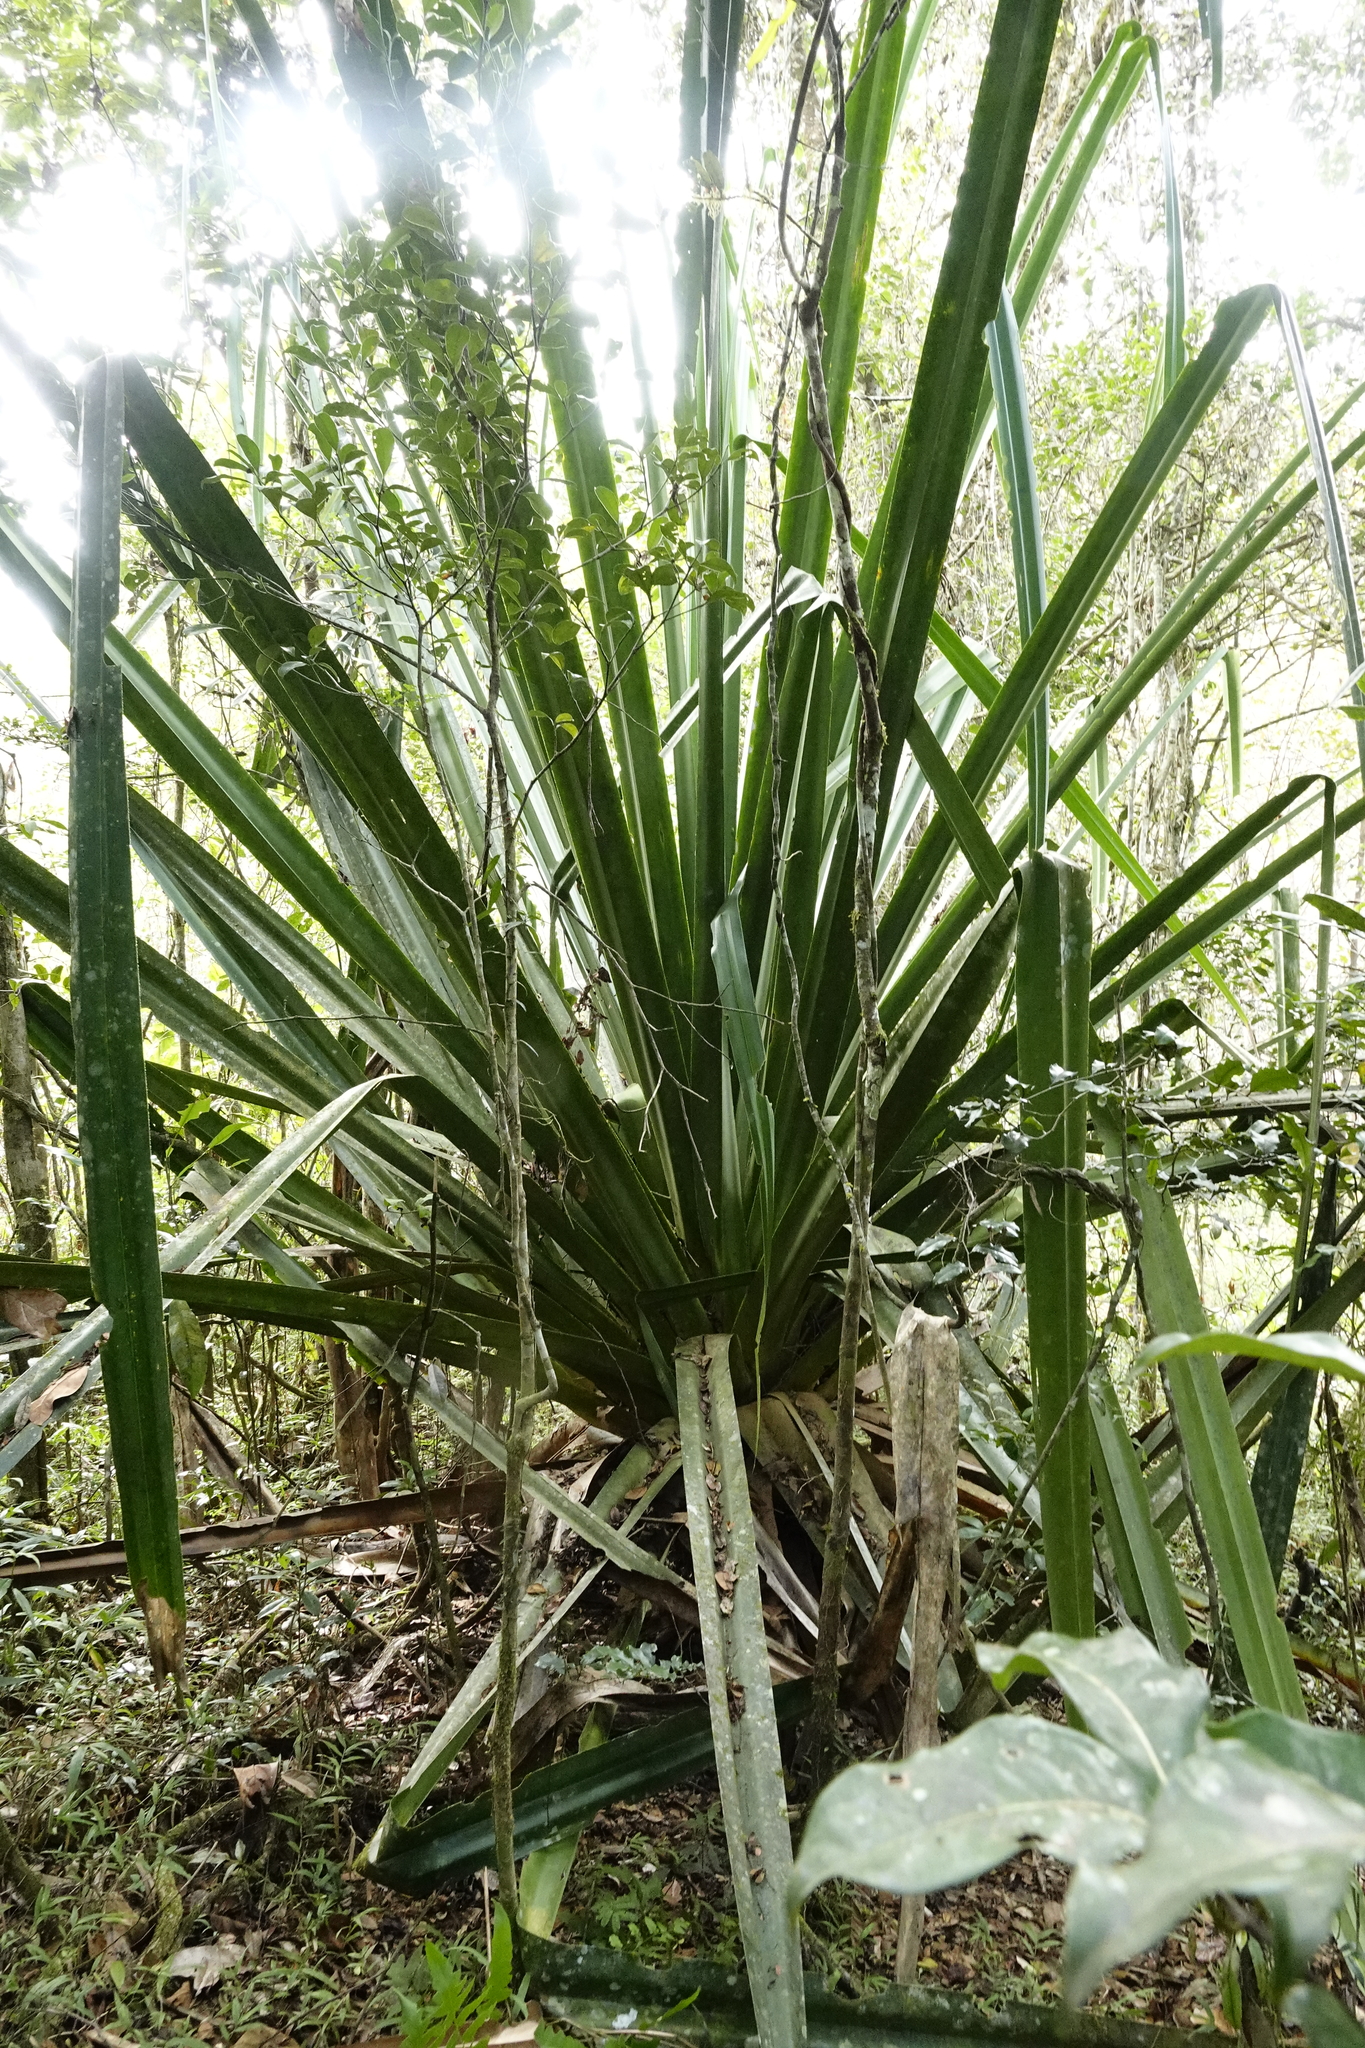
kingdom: Plantae
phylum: Tracheophyta
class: Liliopsida
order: Pandanales
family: Pandanaceae
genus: Pandanus
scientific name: Pandanus pulcher
